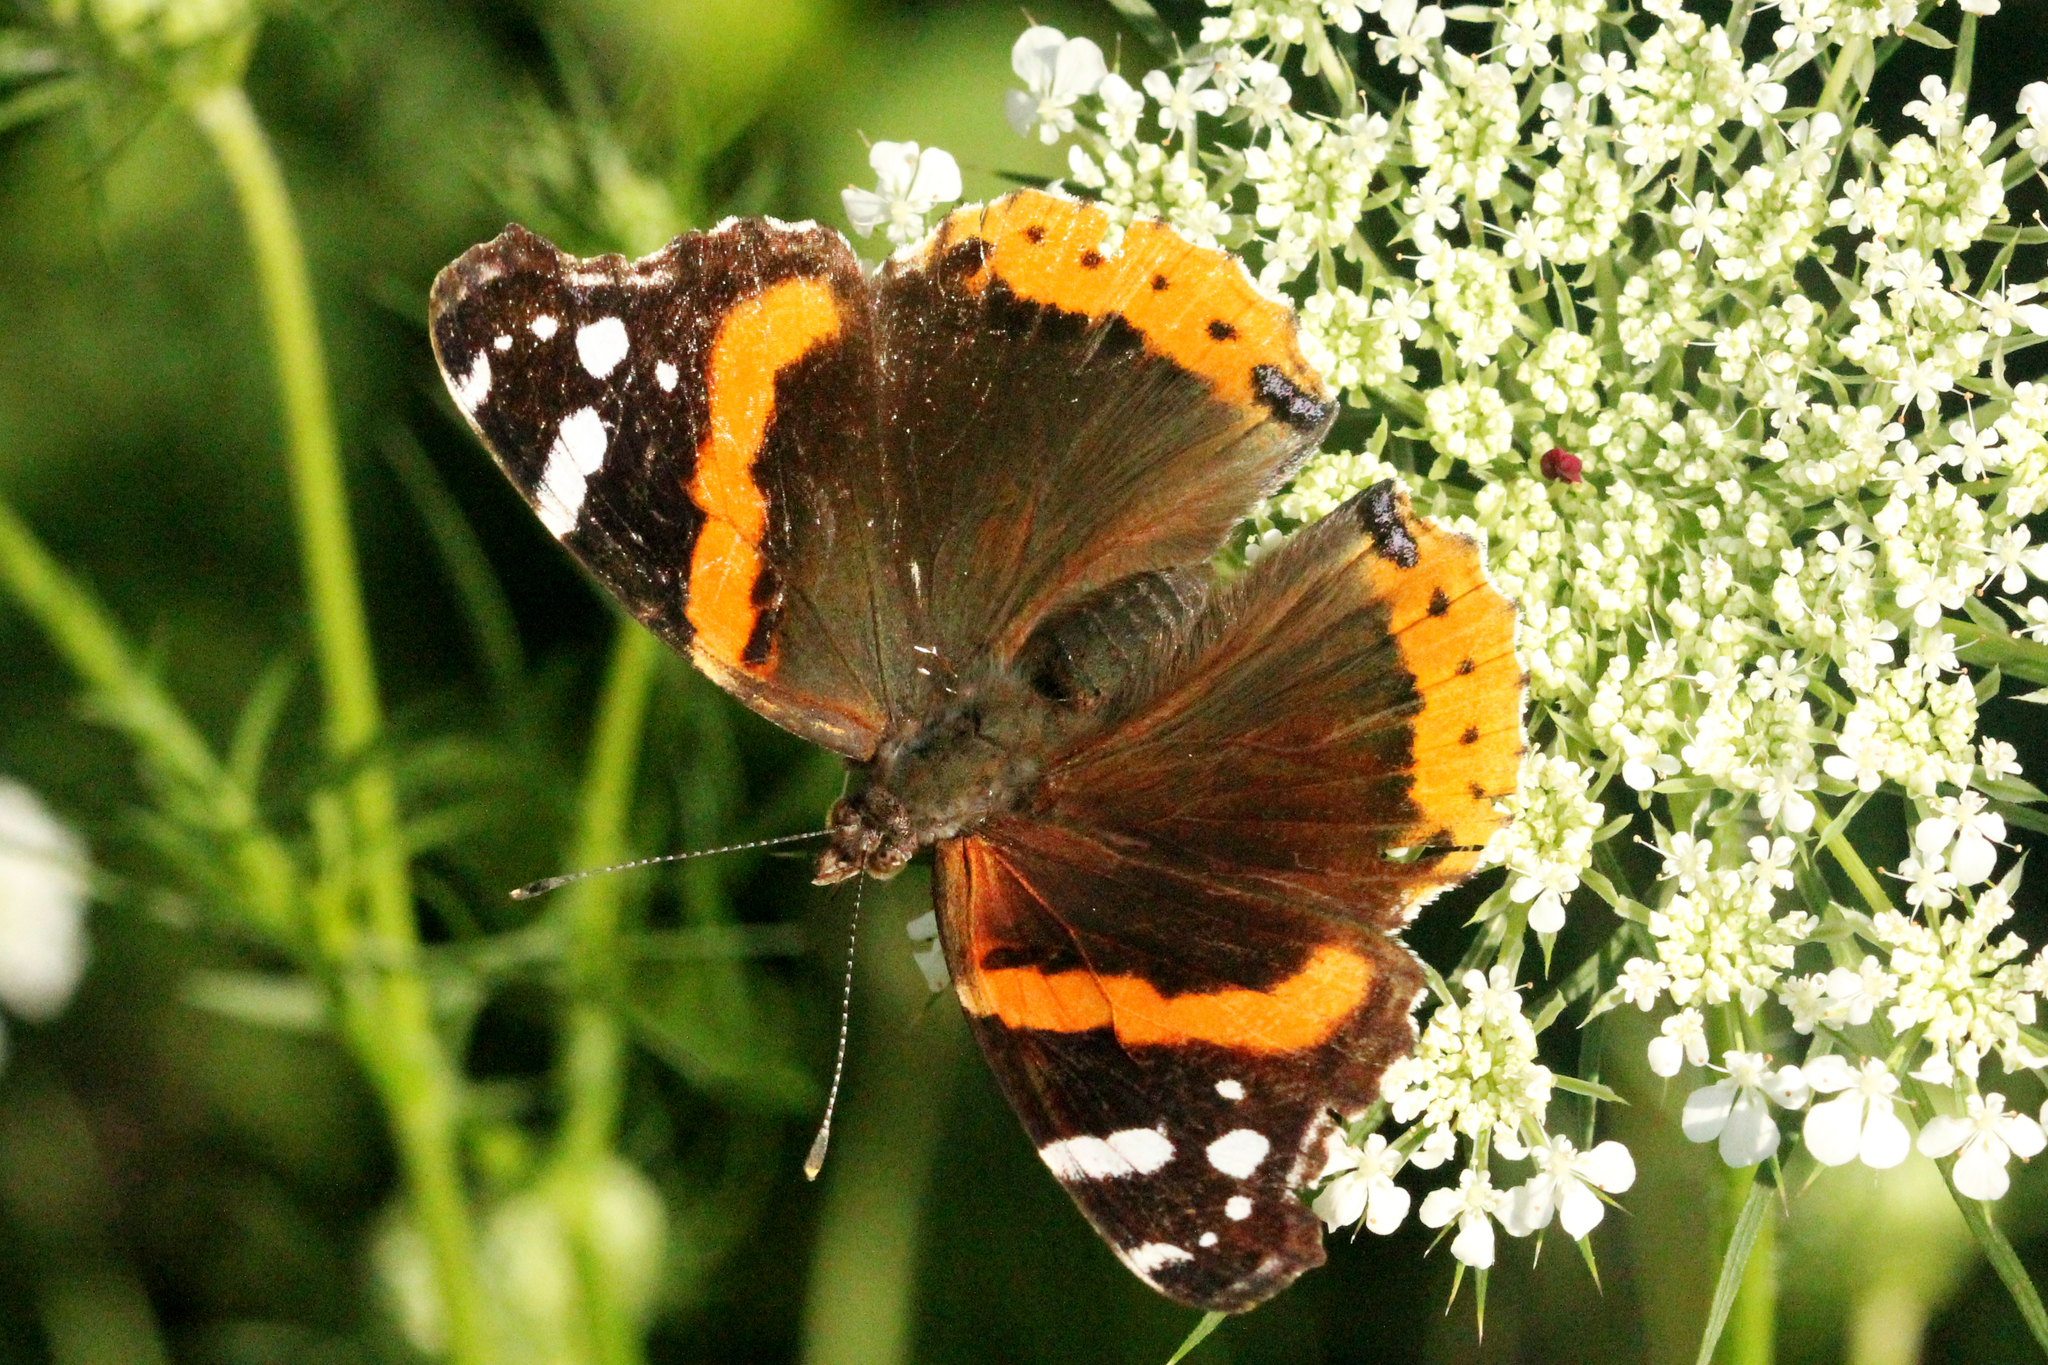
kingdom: Animalia
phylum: Arthropoda
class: Insecta
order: Lepidoptera
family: Nymphalidae
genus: Vanessa
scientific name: Vanessa atalanta
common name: Red admiral
